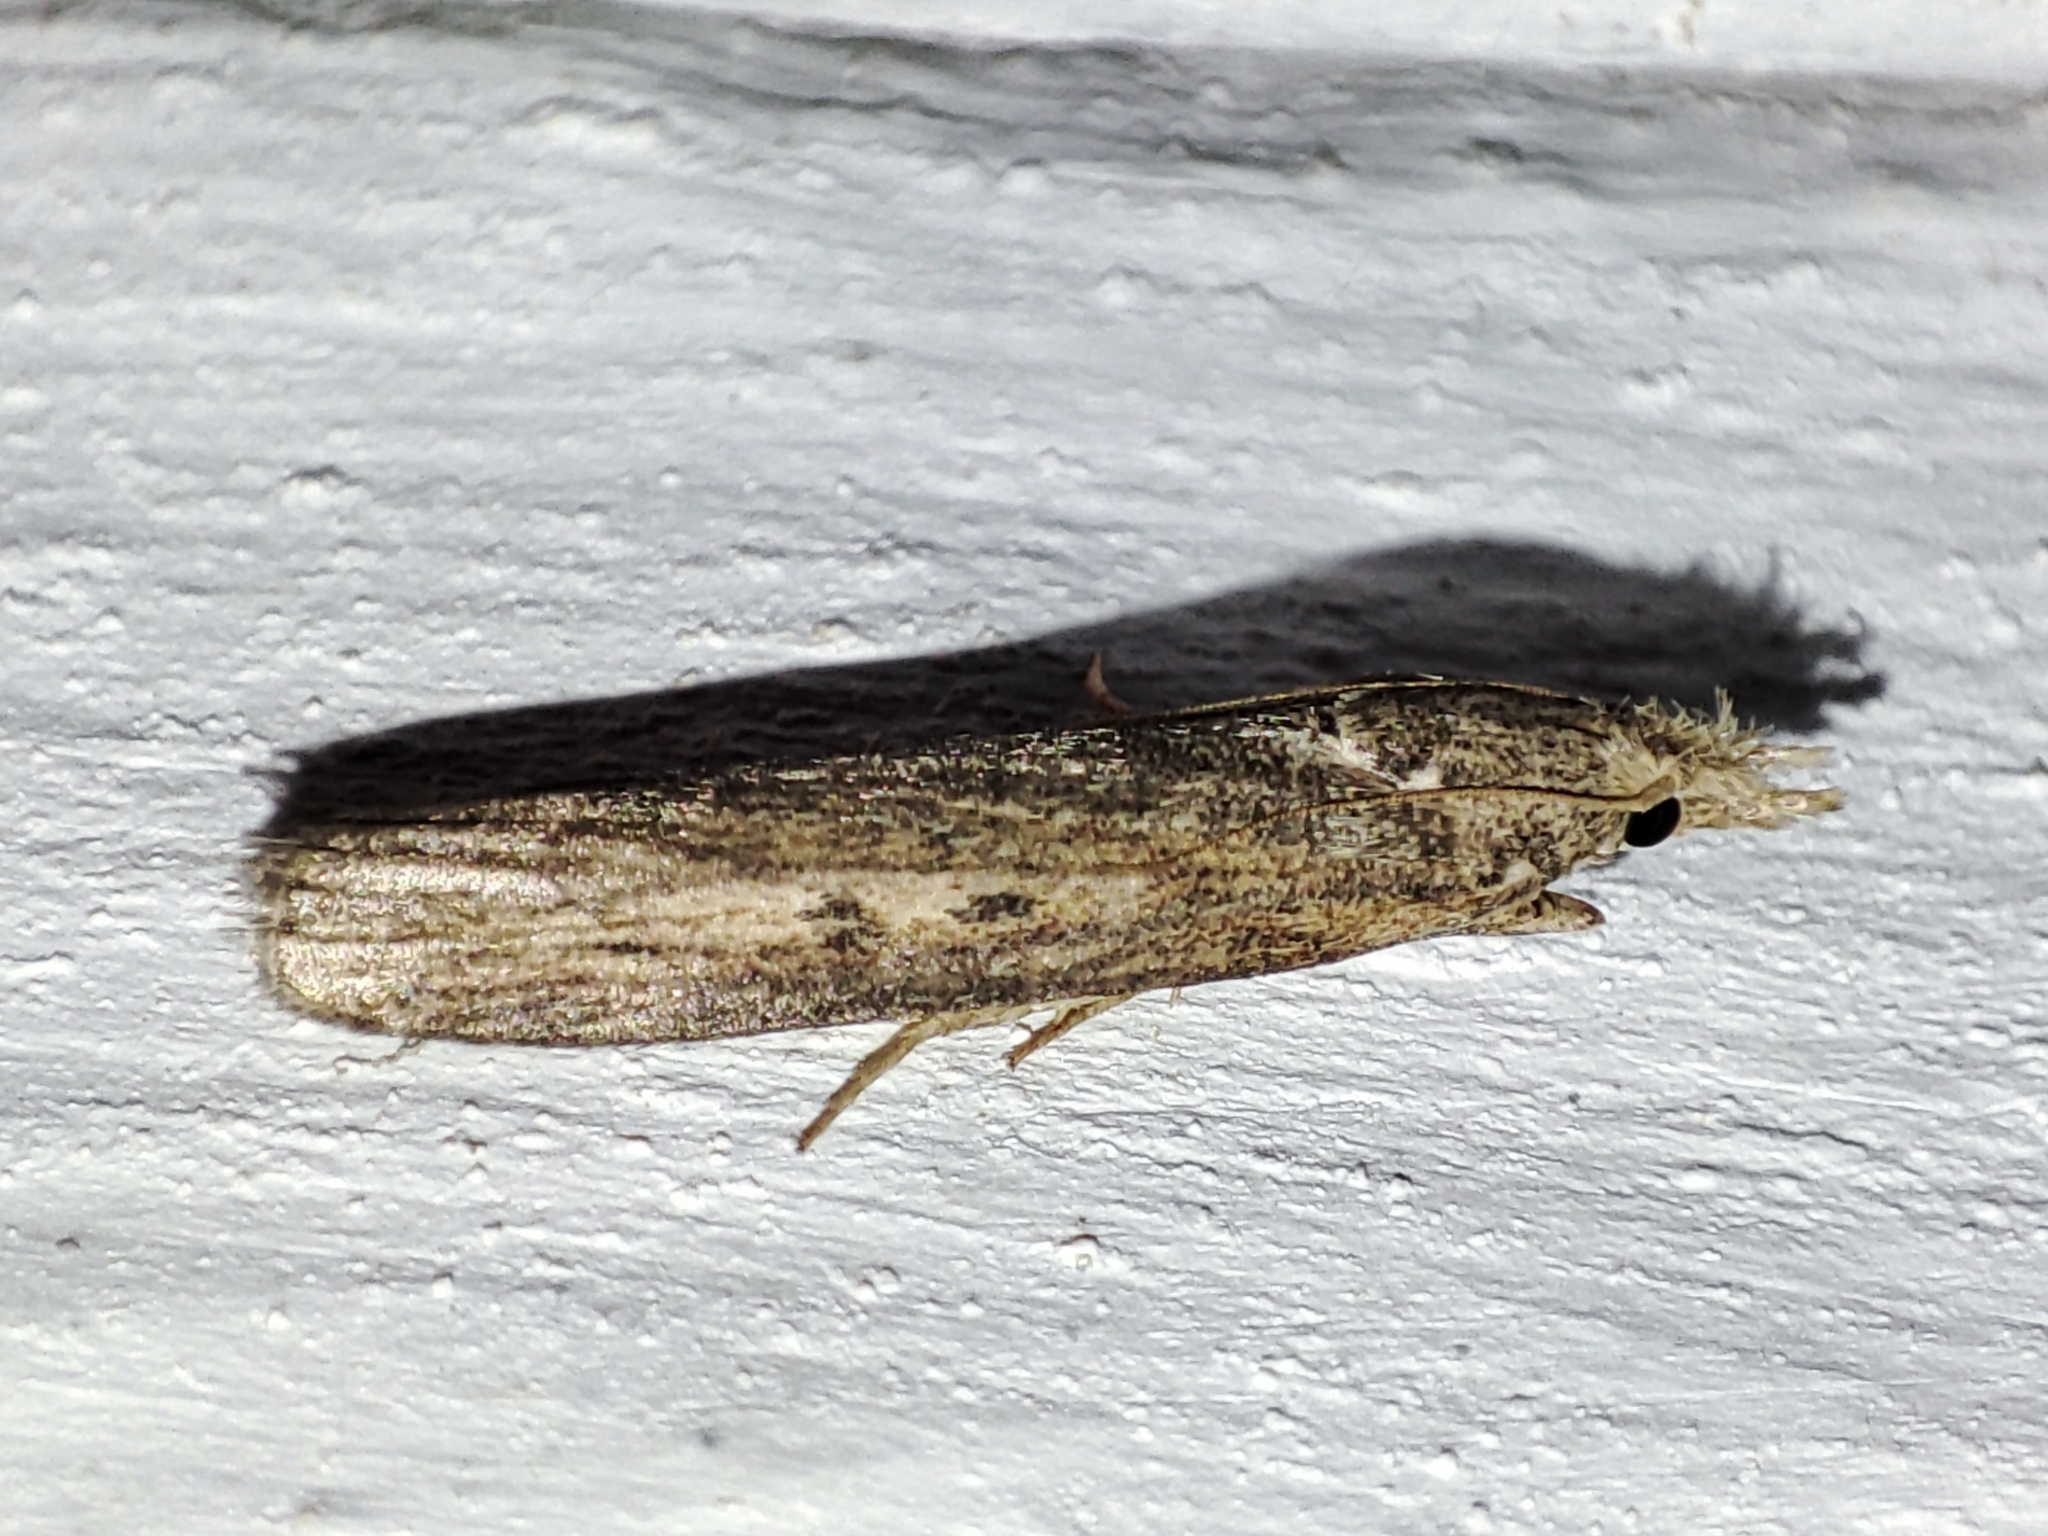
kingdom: Animalia
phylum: Arthropoda
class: Insecta
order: Lepidoptera
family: Pyralidae
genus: Aphomia
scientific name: Aphomia zelleri
